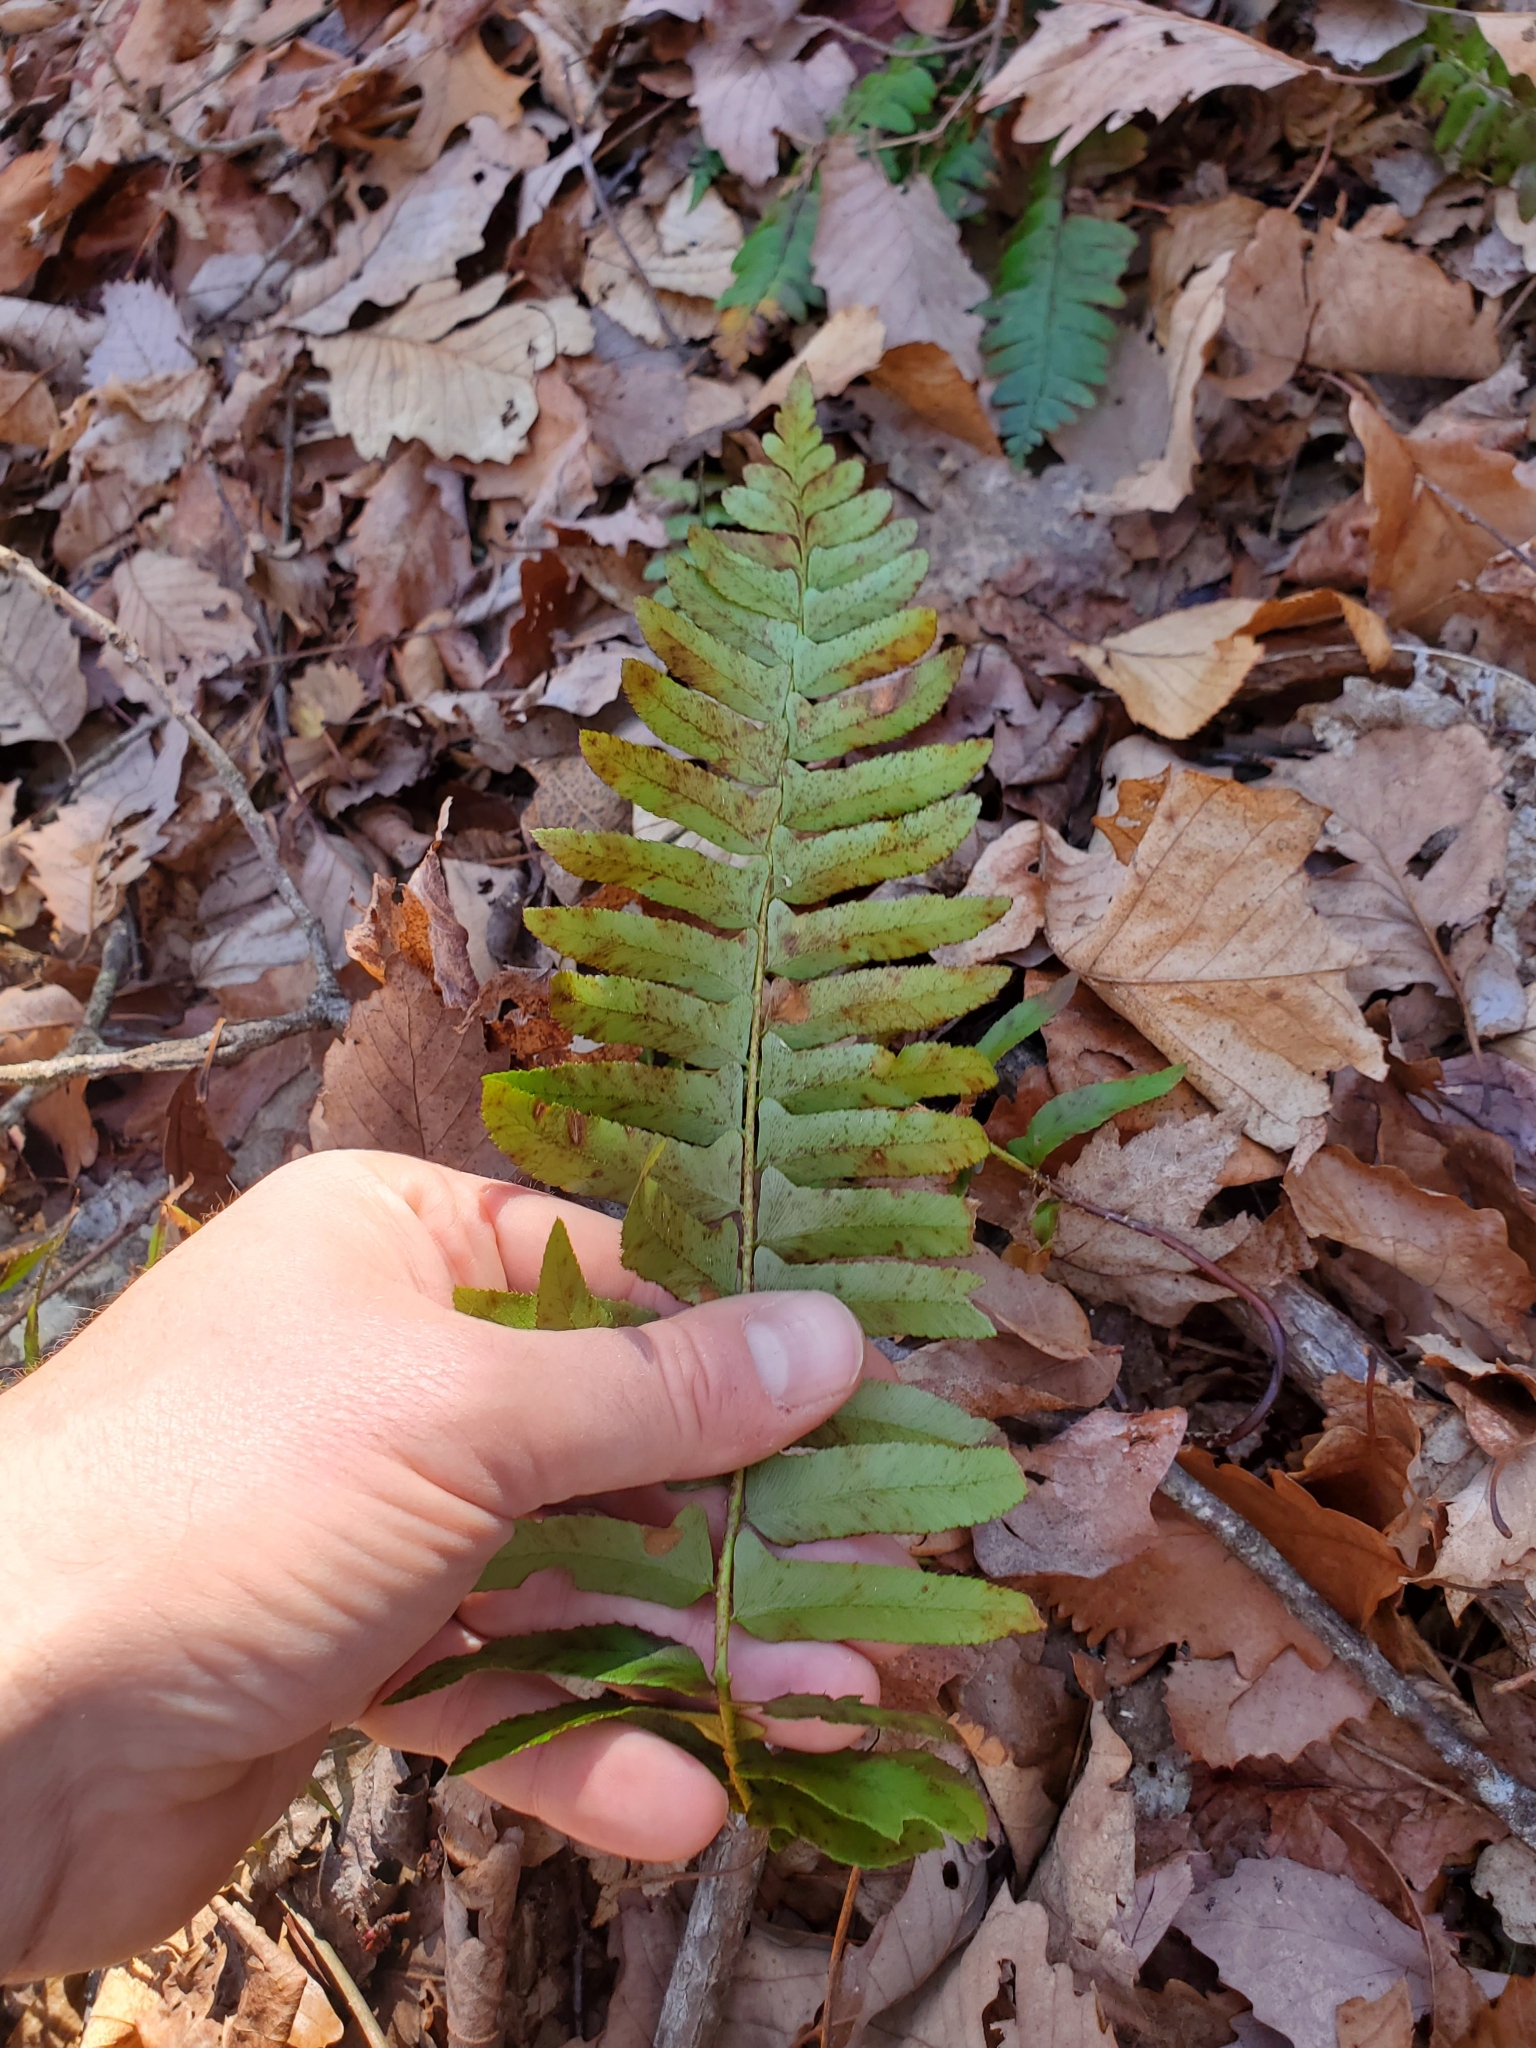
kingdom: Plantae
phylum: Tracheophyta
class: Polypodiopsida
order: Polypodiales
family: Dryopteridaceae
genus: Polystichum
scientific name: Polystichum acrostichoides
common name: Christmas fern
